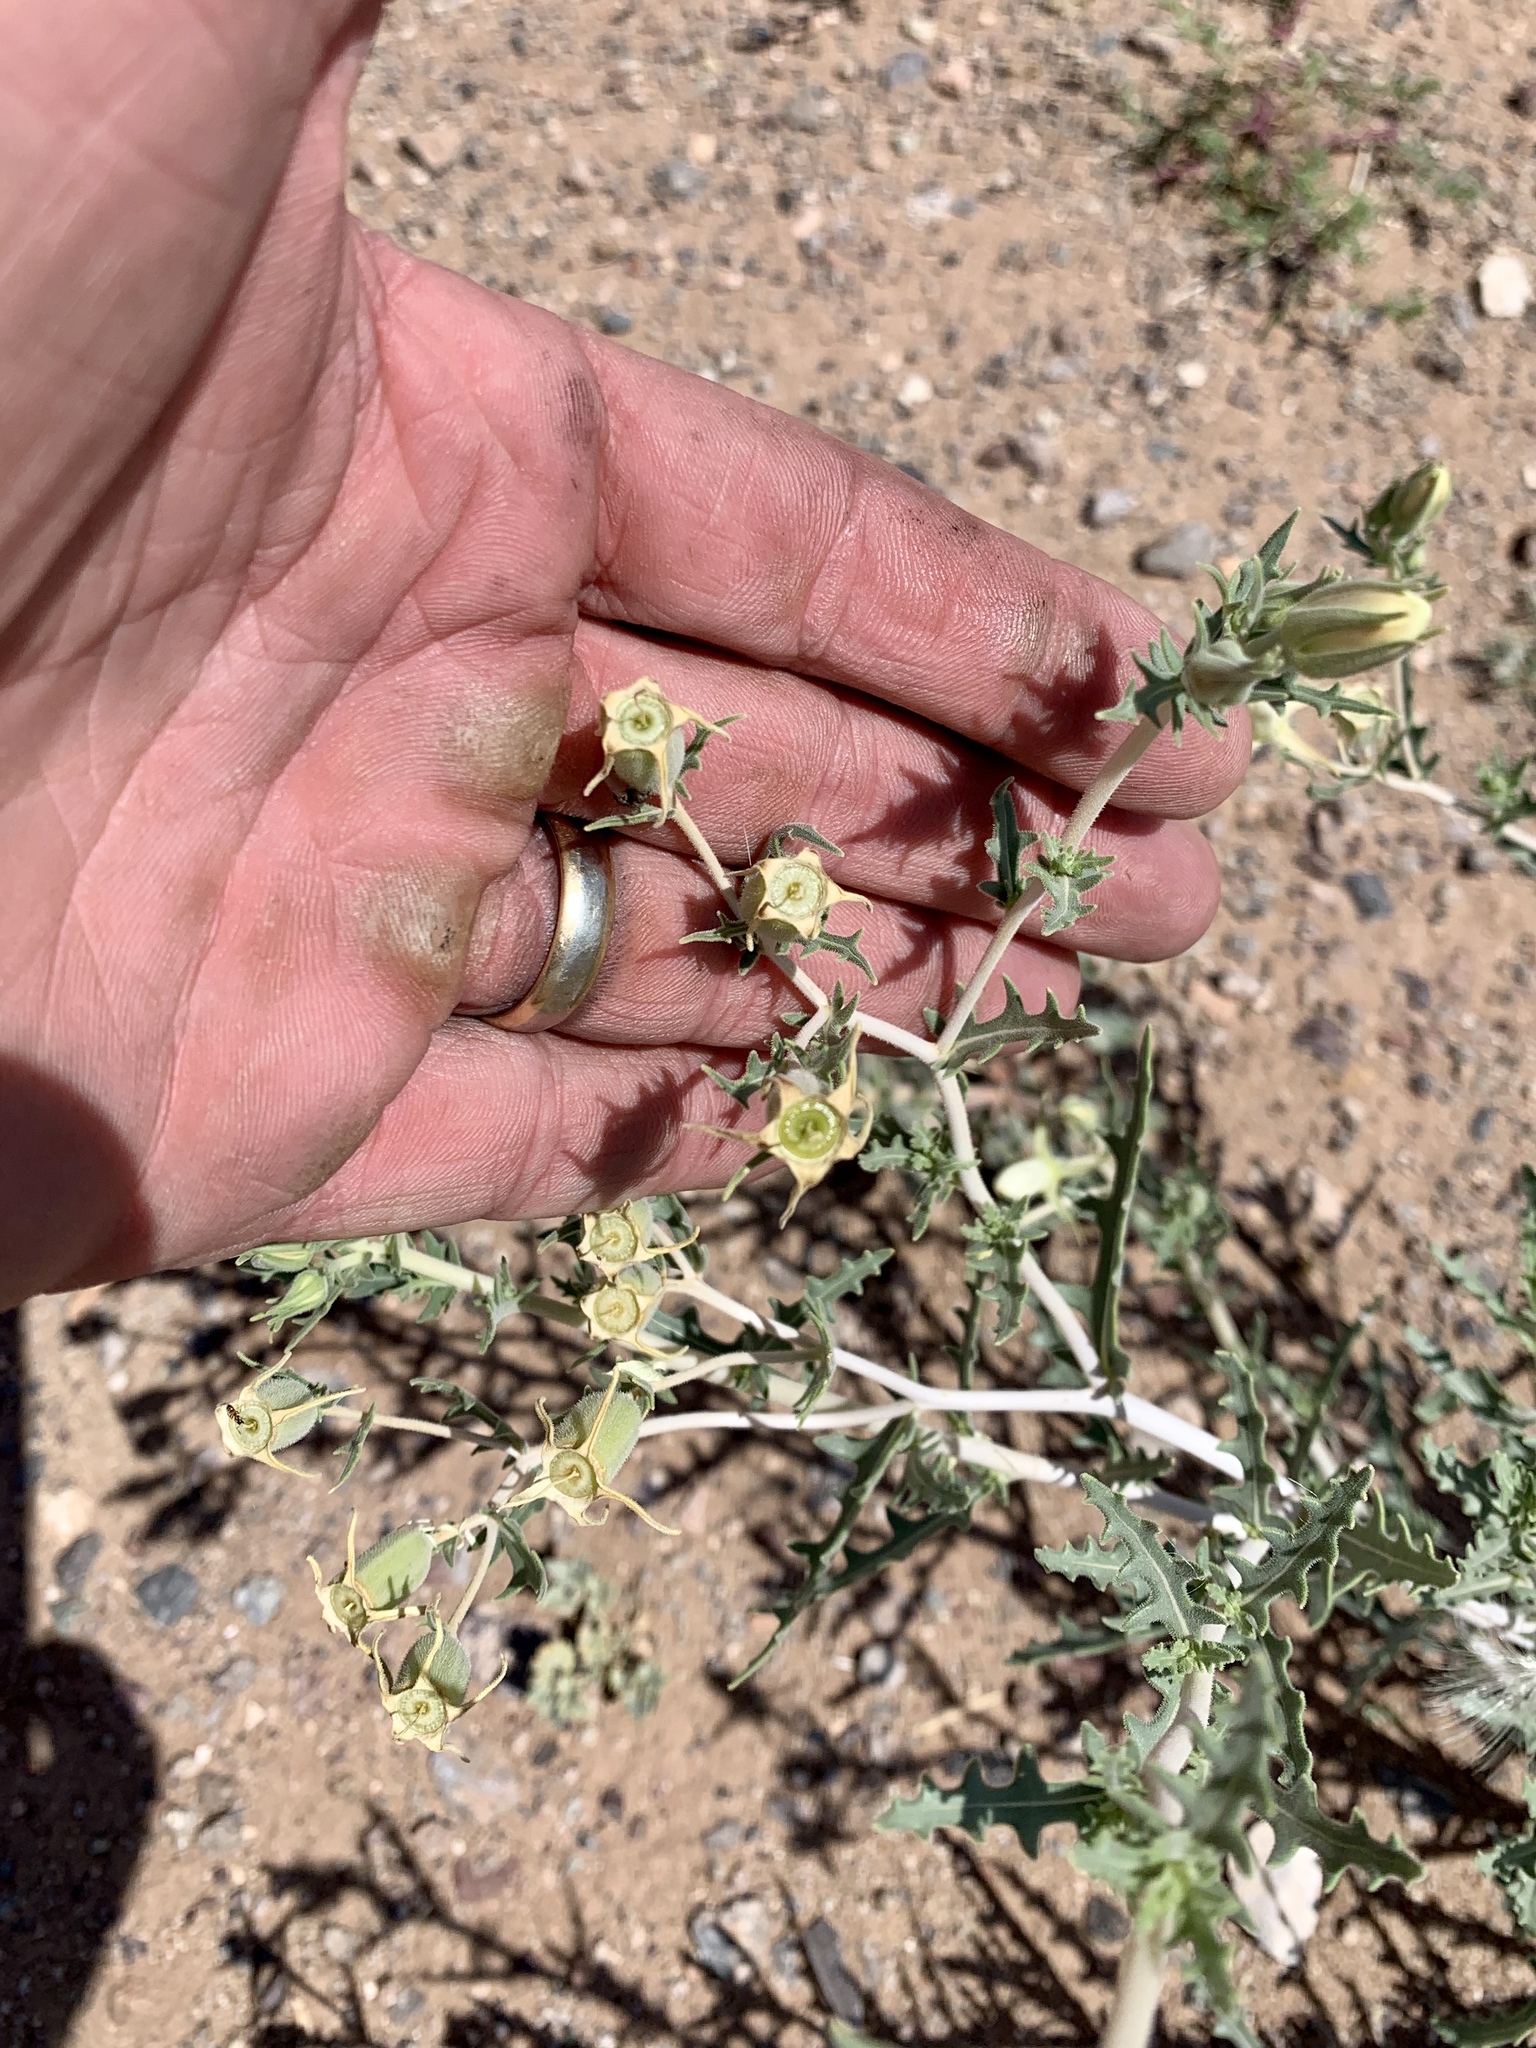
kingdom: Plantae
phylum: Tracheophyta
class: Magnoliopsida
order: Cornales
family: Loasaceae
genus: Mentzelia
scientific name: Mentzelia longiloba
